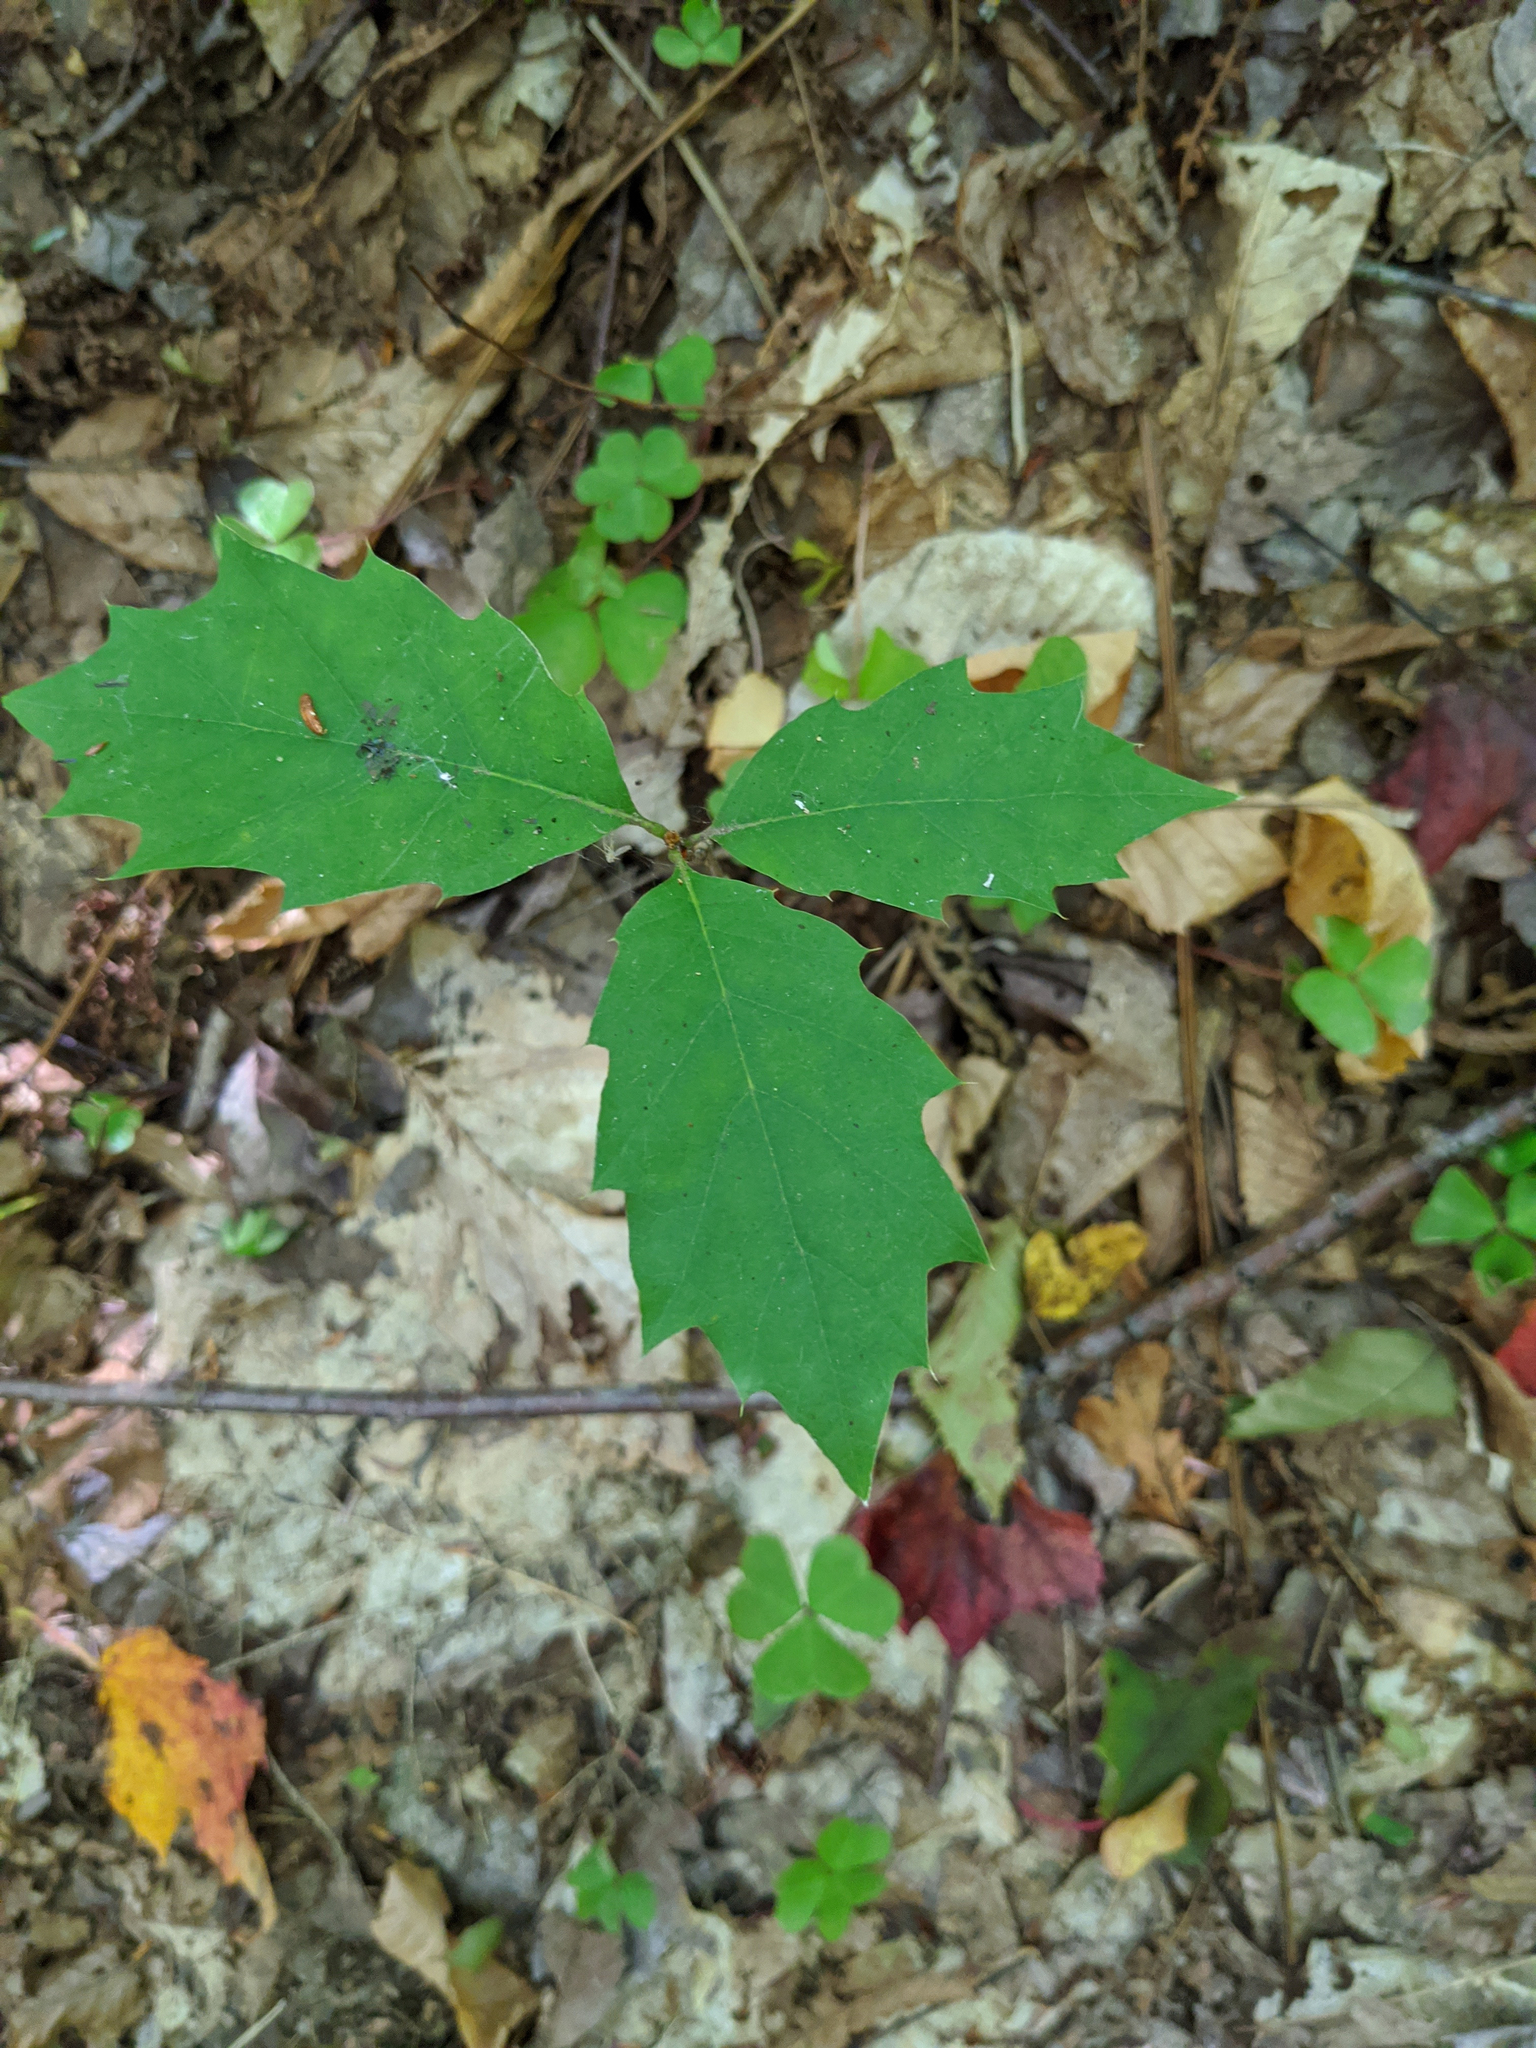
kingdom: Plantae
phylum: Tracheophyta
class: Magnoliopsida
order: Fagales
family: Fagaceae
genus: Quercus
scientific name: Quercus rubra
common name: Red oak
